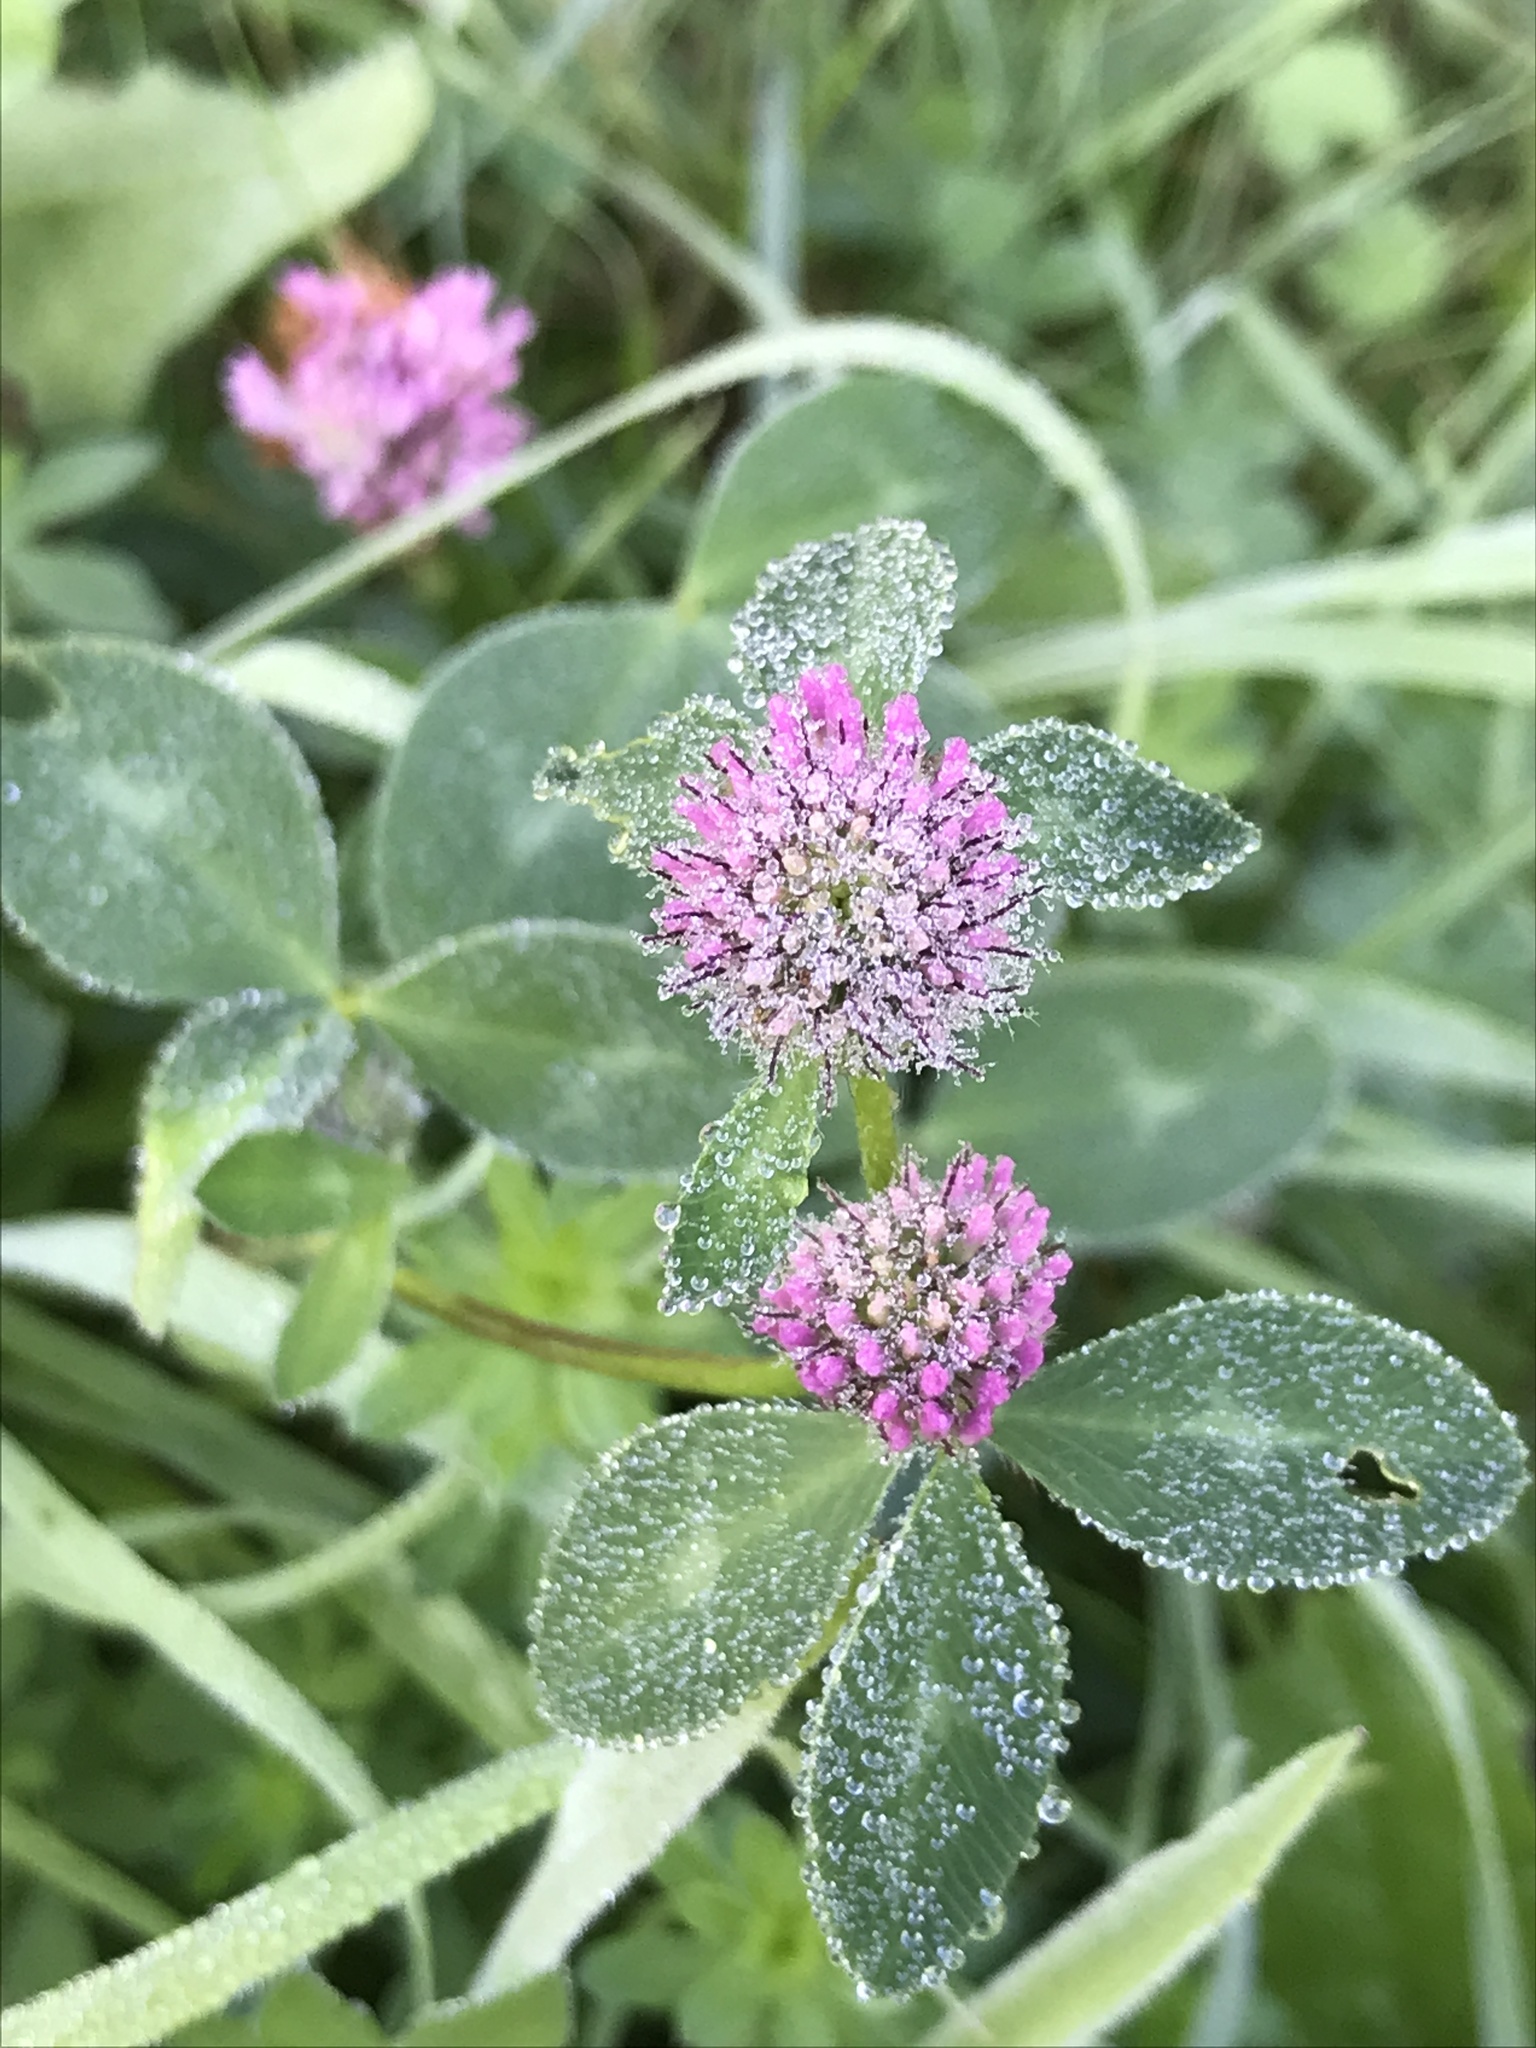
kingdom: Plantae
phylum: Tracheophyta
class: Magnoliopsida
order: Fabales
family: Fabaceae
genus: Trifolium
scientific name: Trifolium pratense
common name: Red clover
